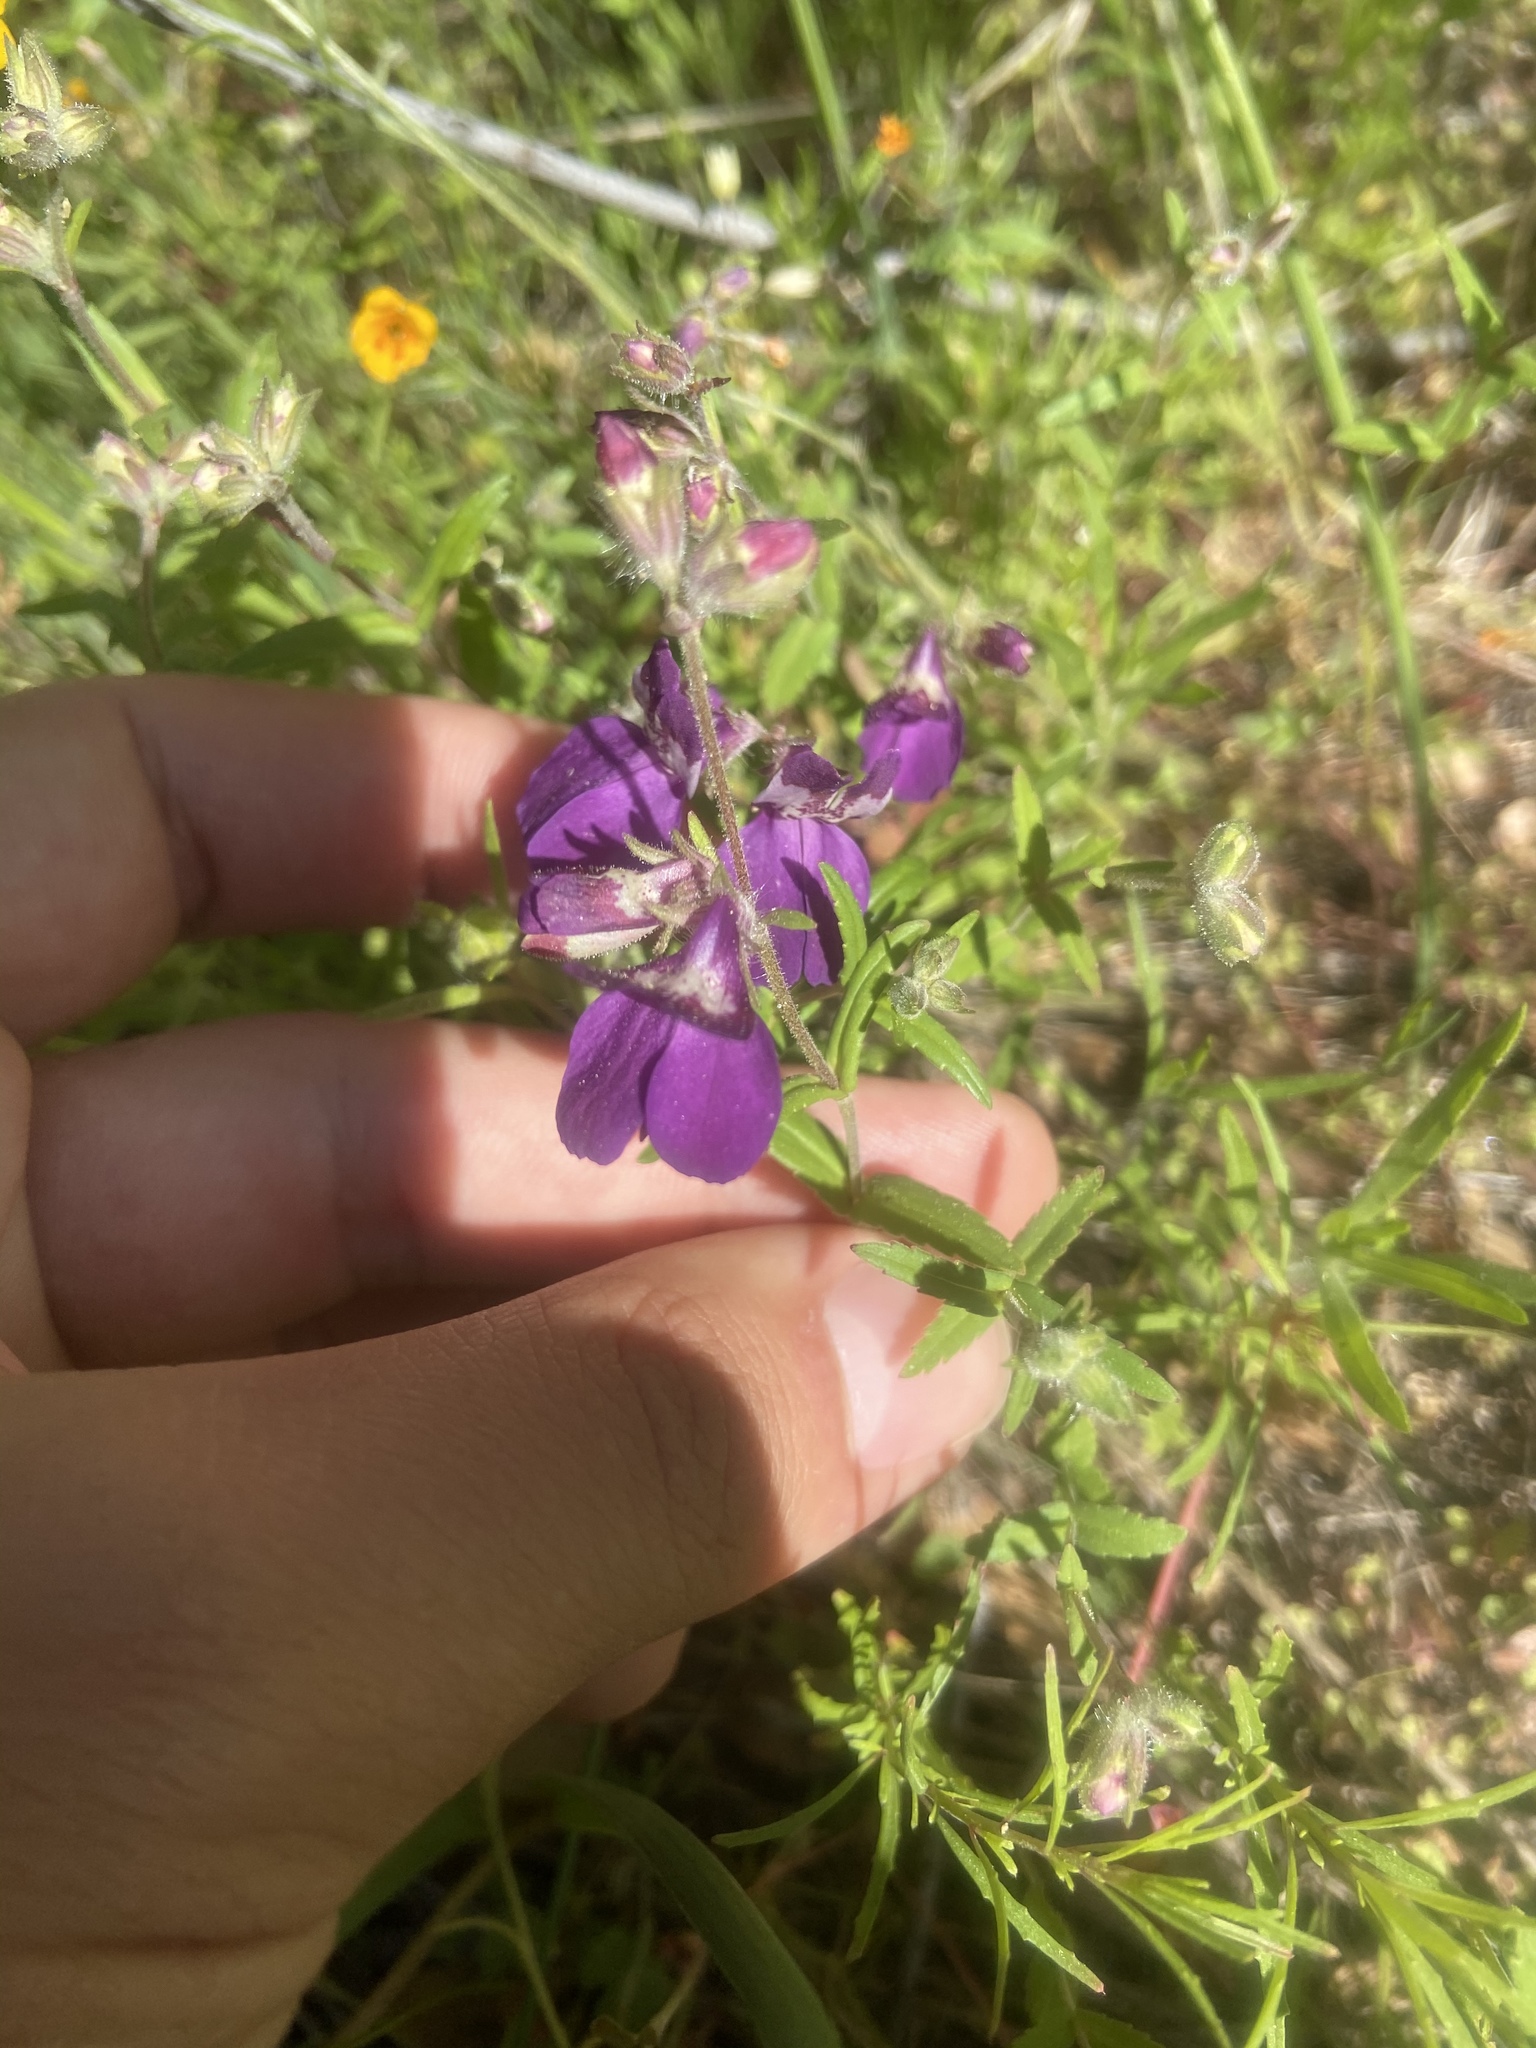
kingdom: Plantae
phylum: Tracheophyta
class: Magnoliopsida
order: Lamiales
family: Plantaginaceae
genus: Collinsia
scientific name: Collinsia heterophylla
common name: Chinese-houses
